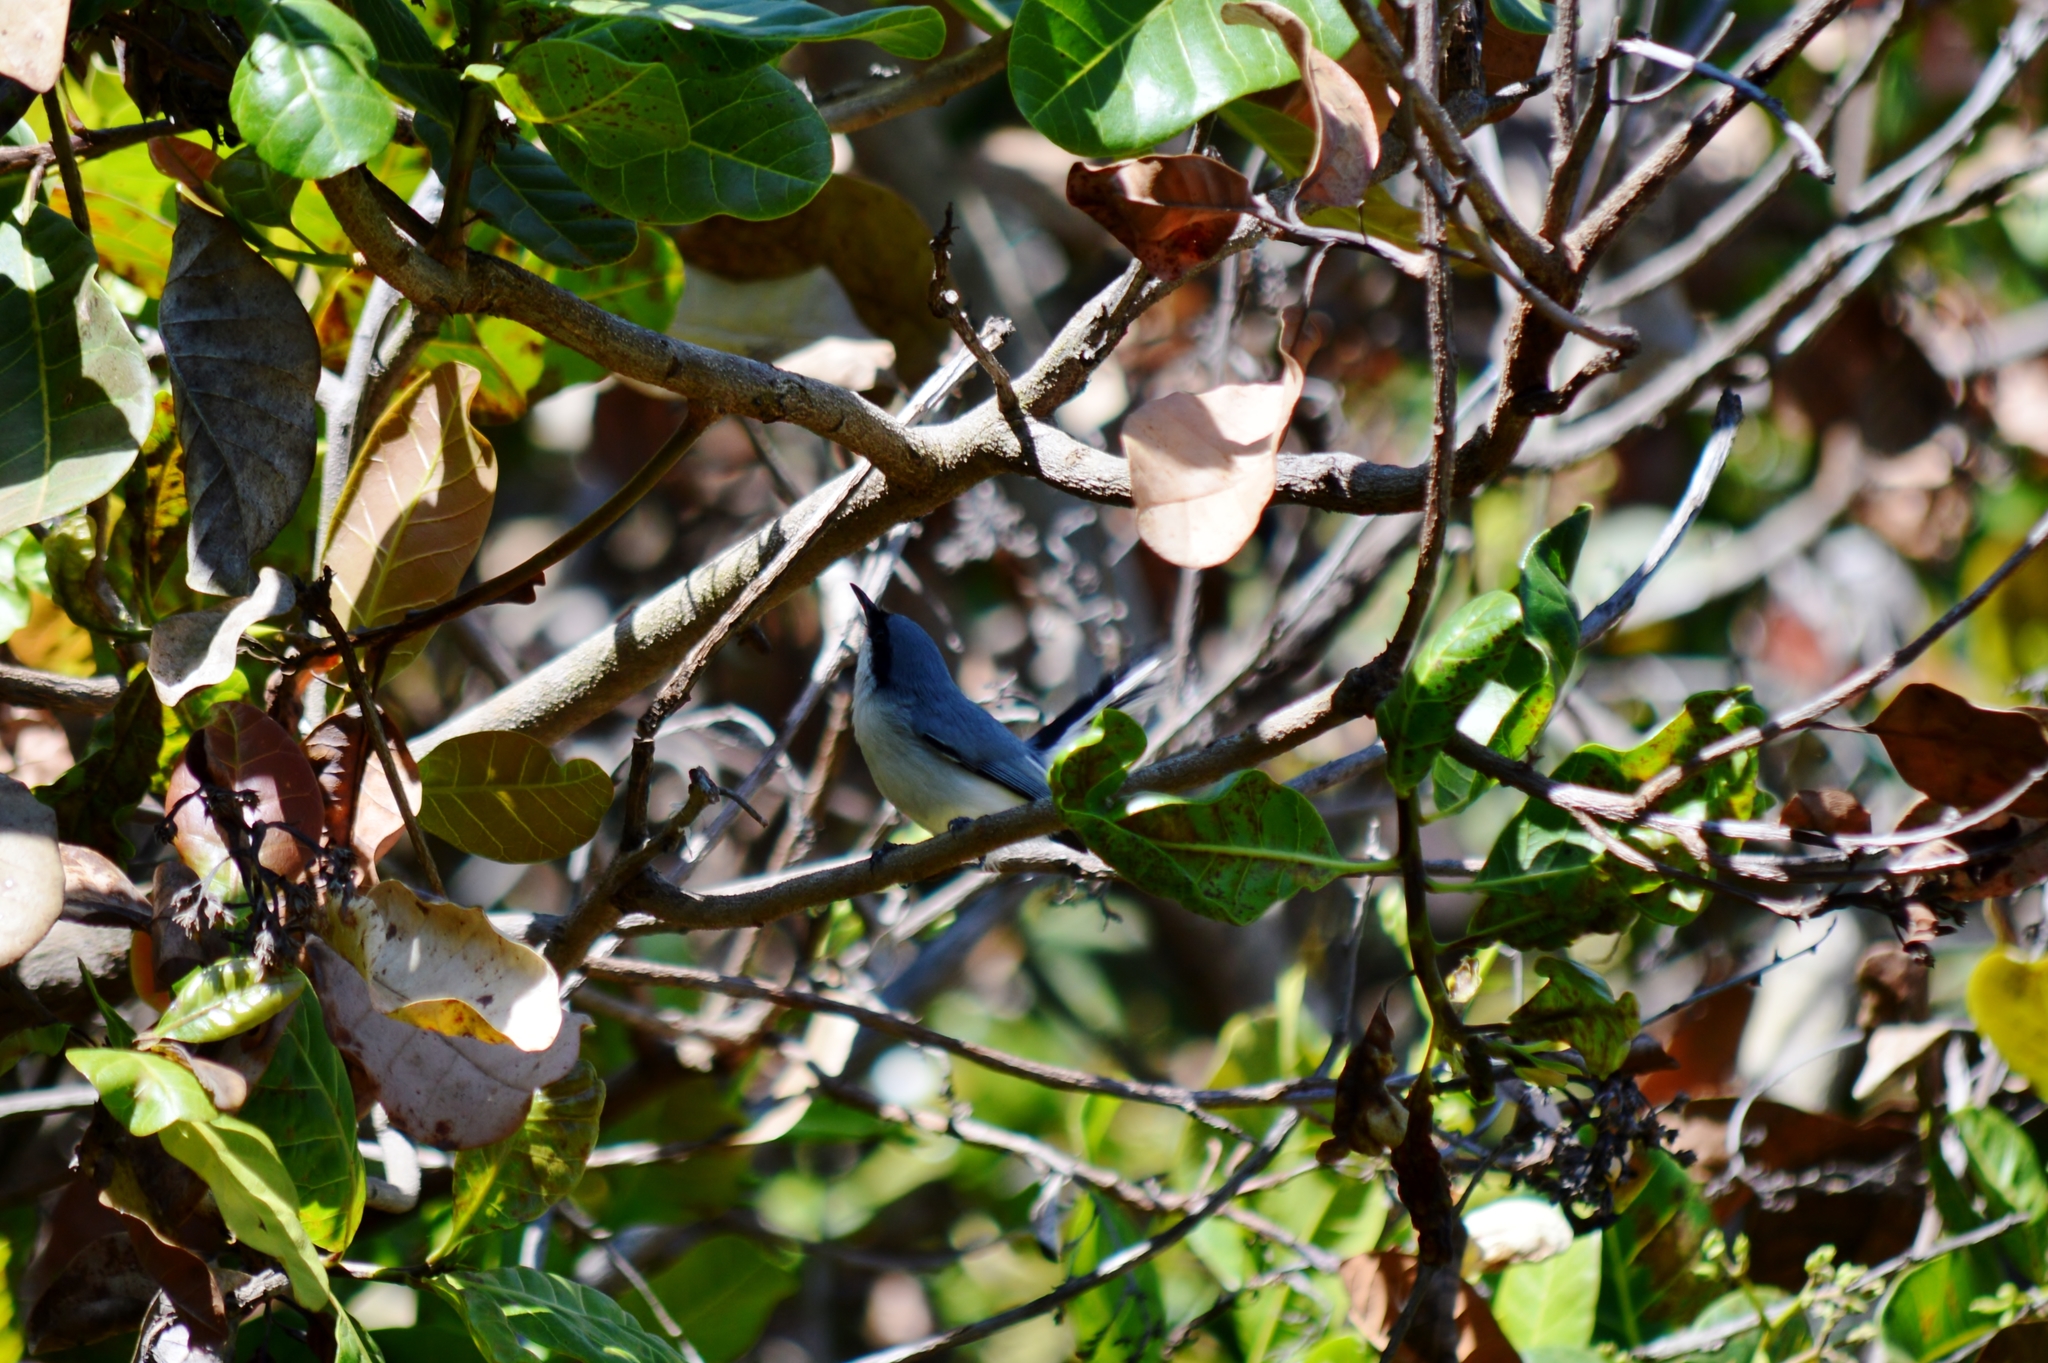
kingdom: Animalia
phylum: Chordata
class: Aves
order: Passeriformes
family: Polioptilidae
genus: Polioptila
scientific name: Polioptila dumicola
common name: Masked gnatcatcher
